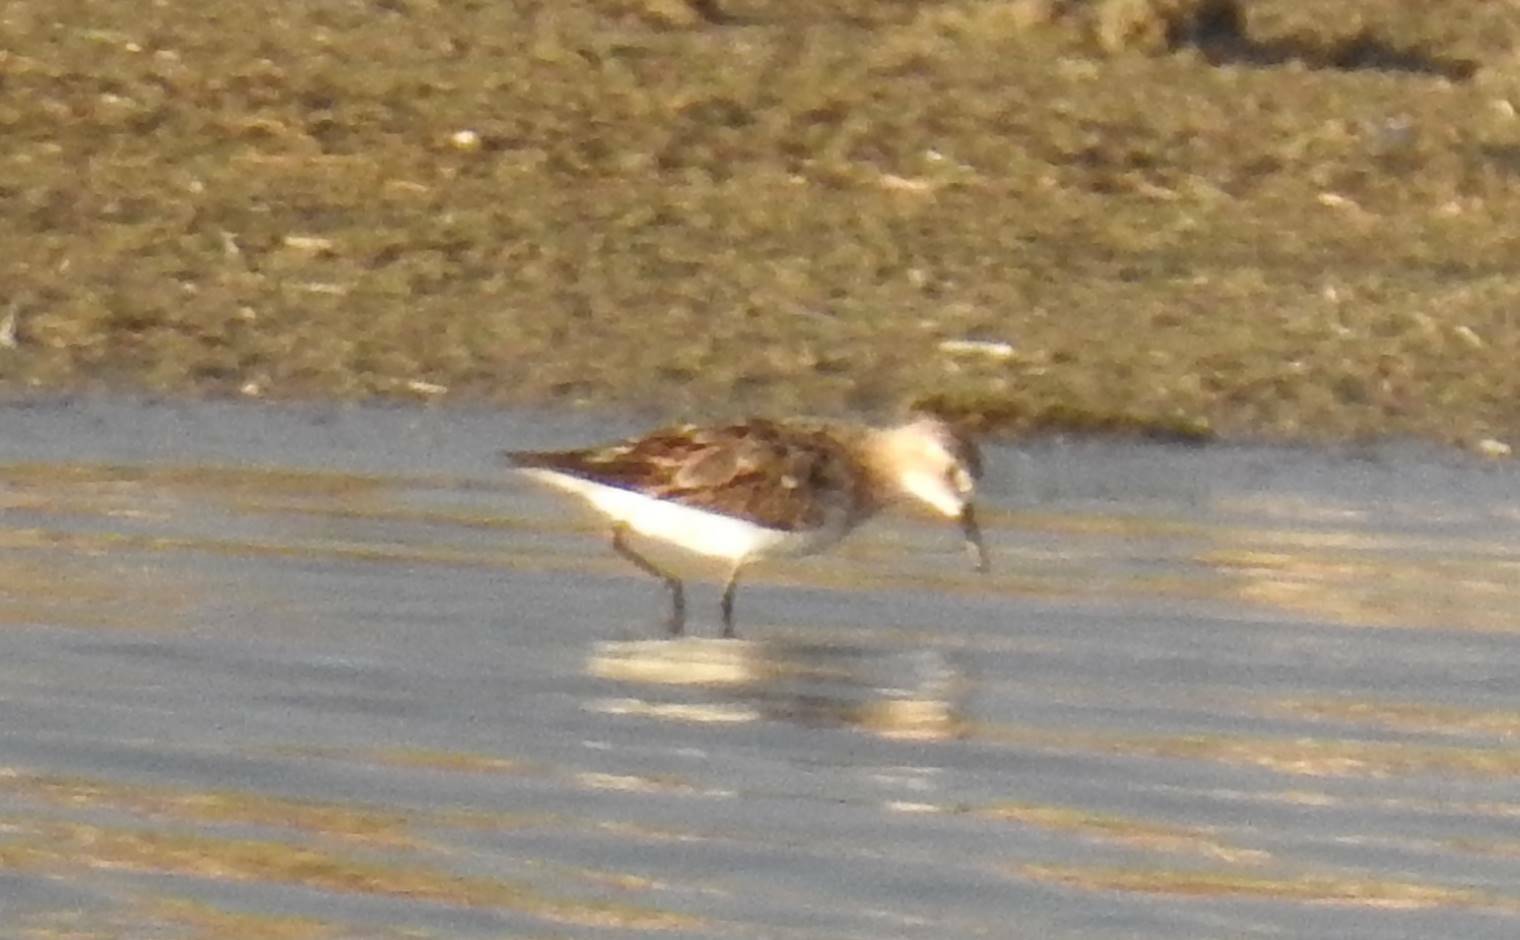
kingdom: Animalia
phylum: Chordata
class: Aves
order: Charadriiformes
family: Scolopacidae
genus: Calidris
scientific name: Calidris minuta
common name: Little stint
